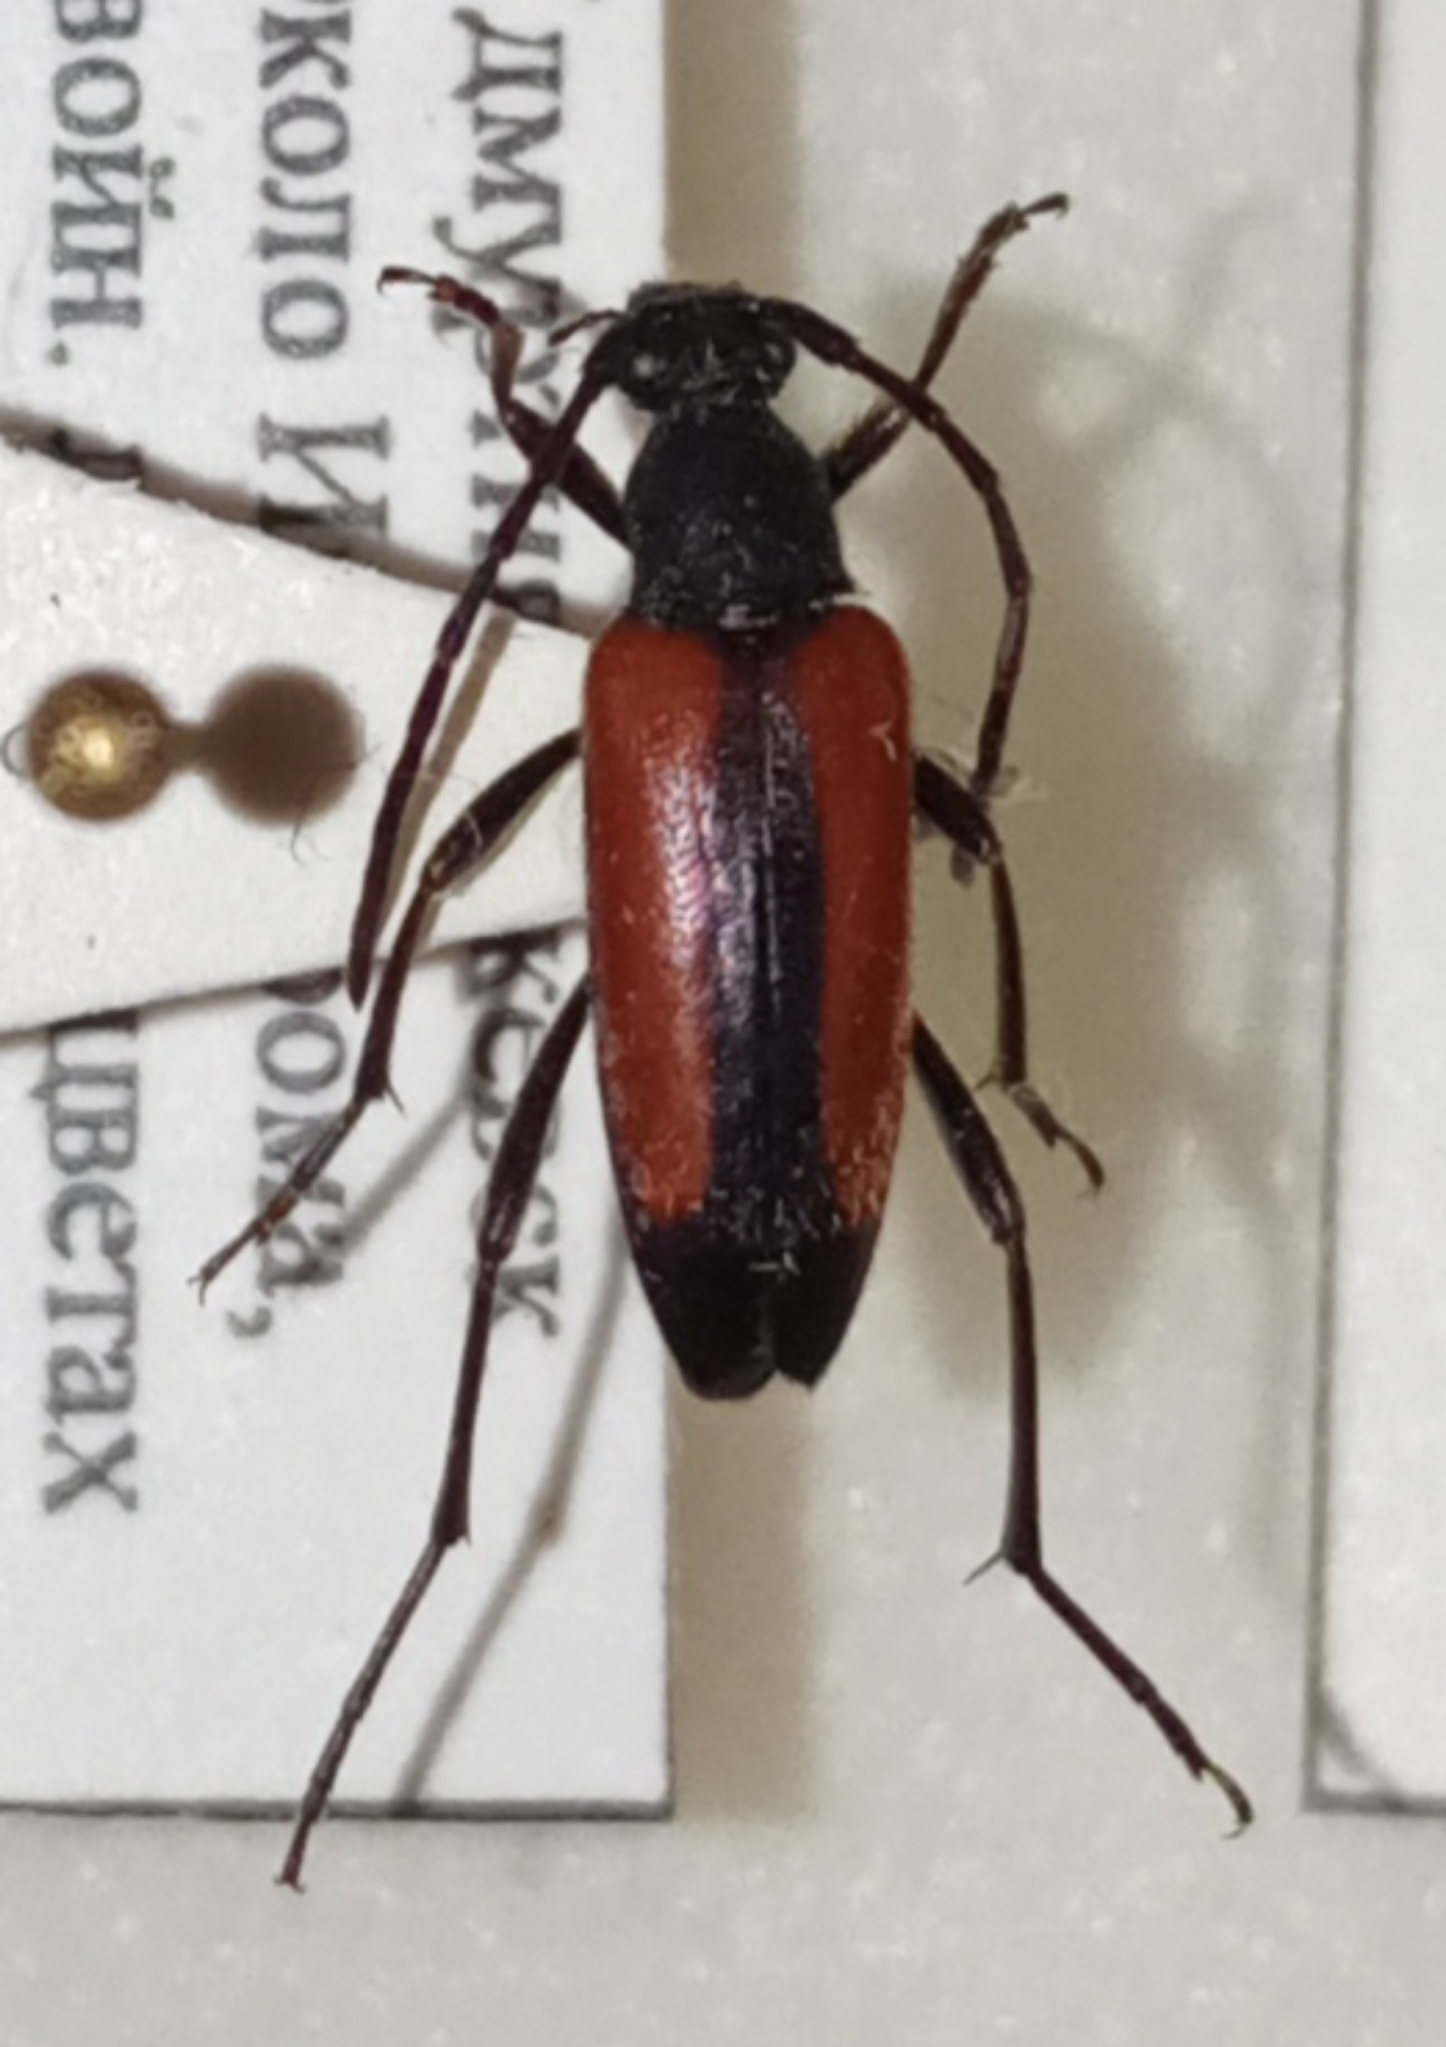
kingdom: Animalia
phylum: Arthropoda
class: Insecta
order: Coleoptera
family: Cerambycidae
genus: Stenurella
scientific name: Stenurella melanura
